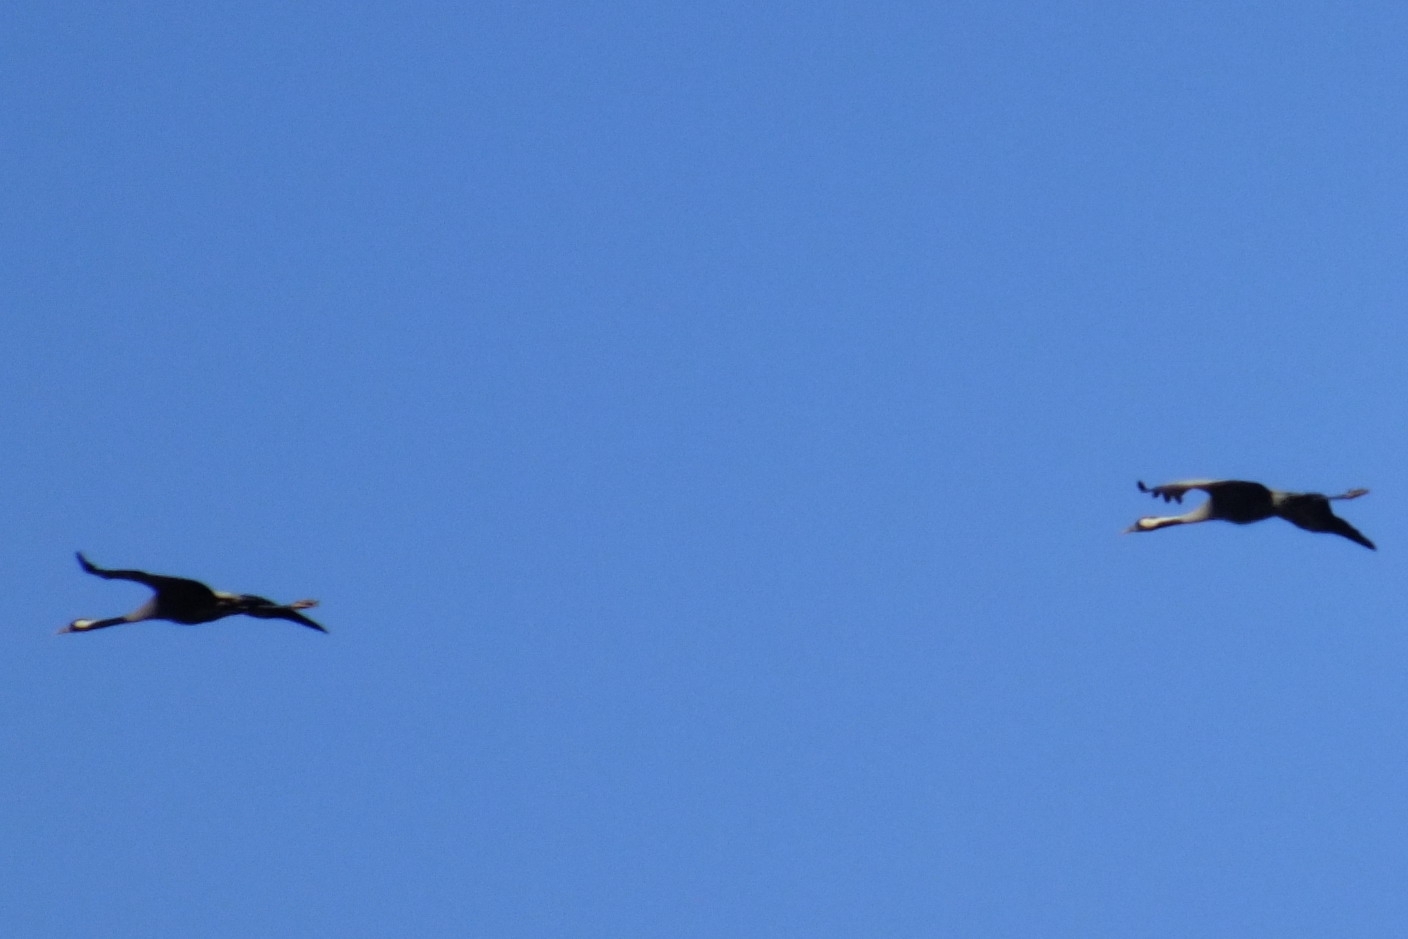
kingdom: Animalia
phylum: Chordata
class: Aves
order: Gruiformes
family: Gruidae
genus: Grus
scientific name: Grus grus
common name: Common crane
